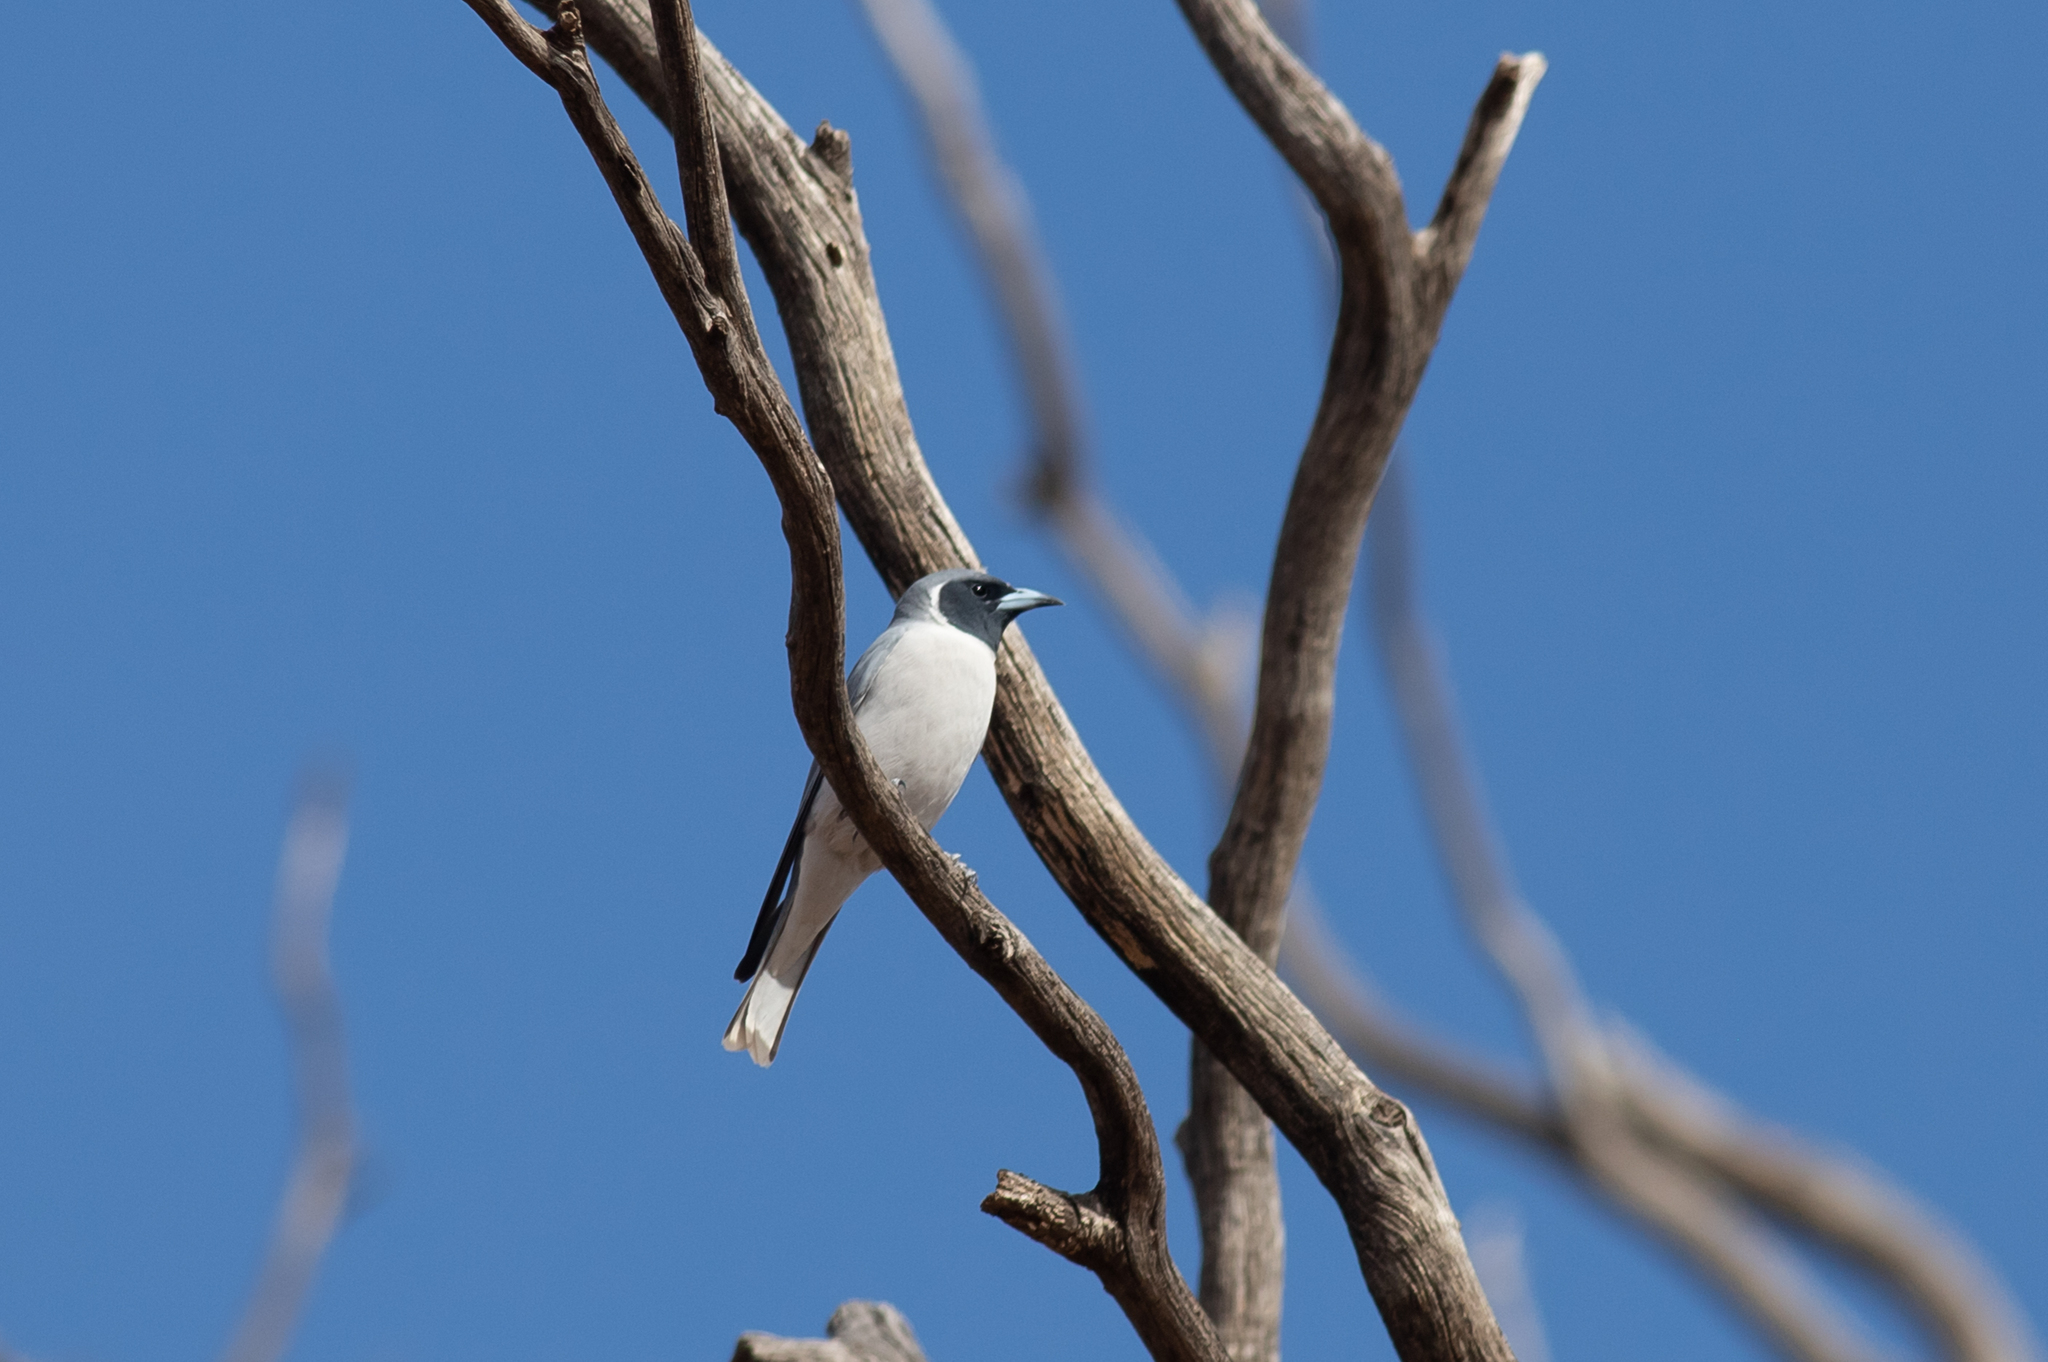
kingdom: Animalia
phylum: Chordata
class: Aves
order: Passeriformes
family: Artamidae
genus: Artamus
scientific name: Artamus personatus
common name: Masked woodswallow
